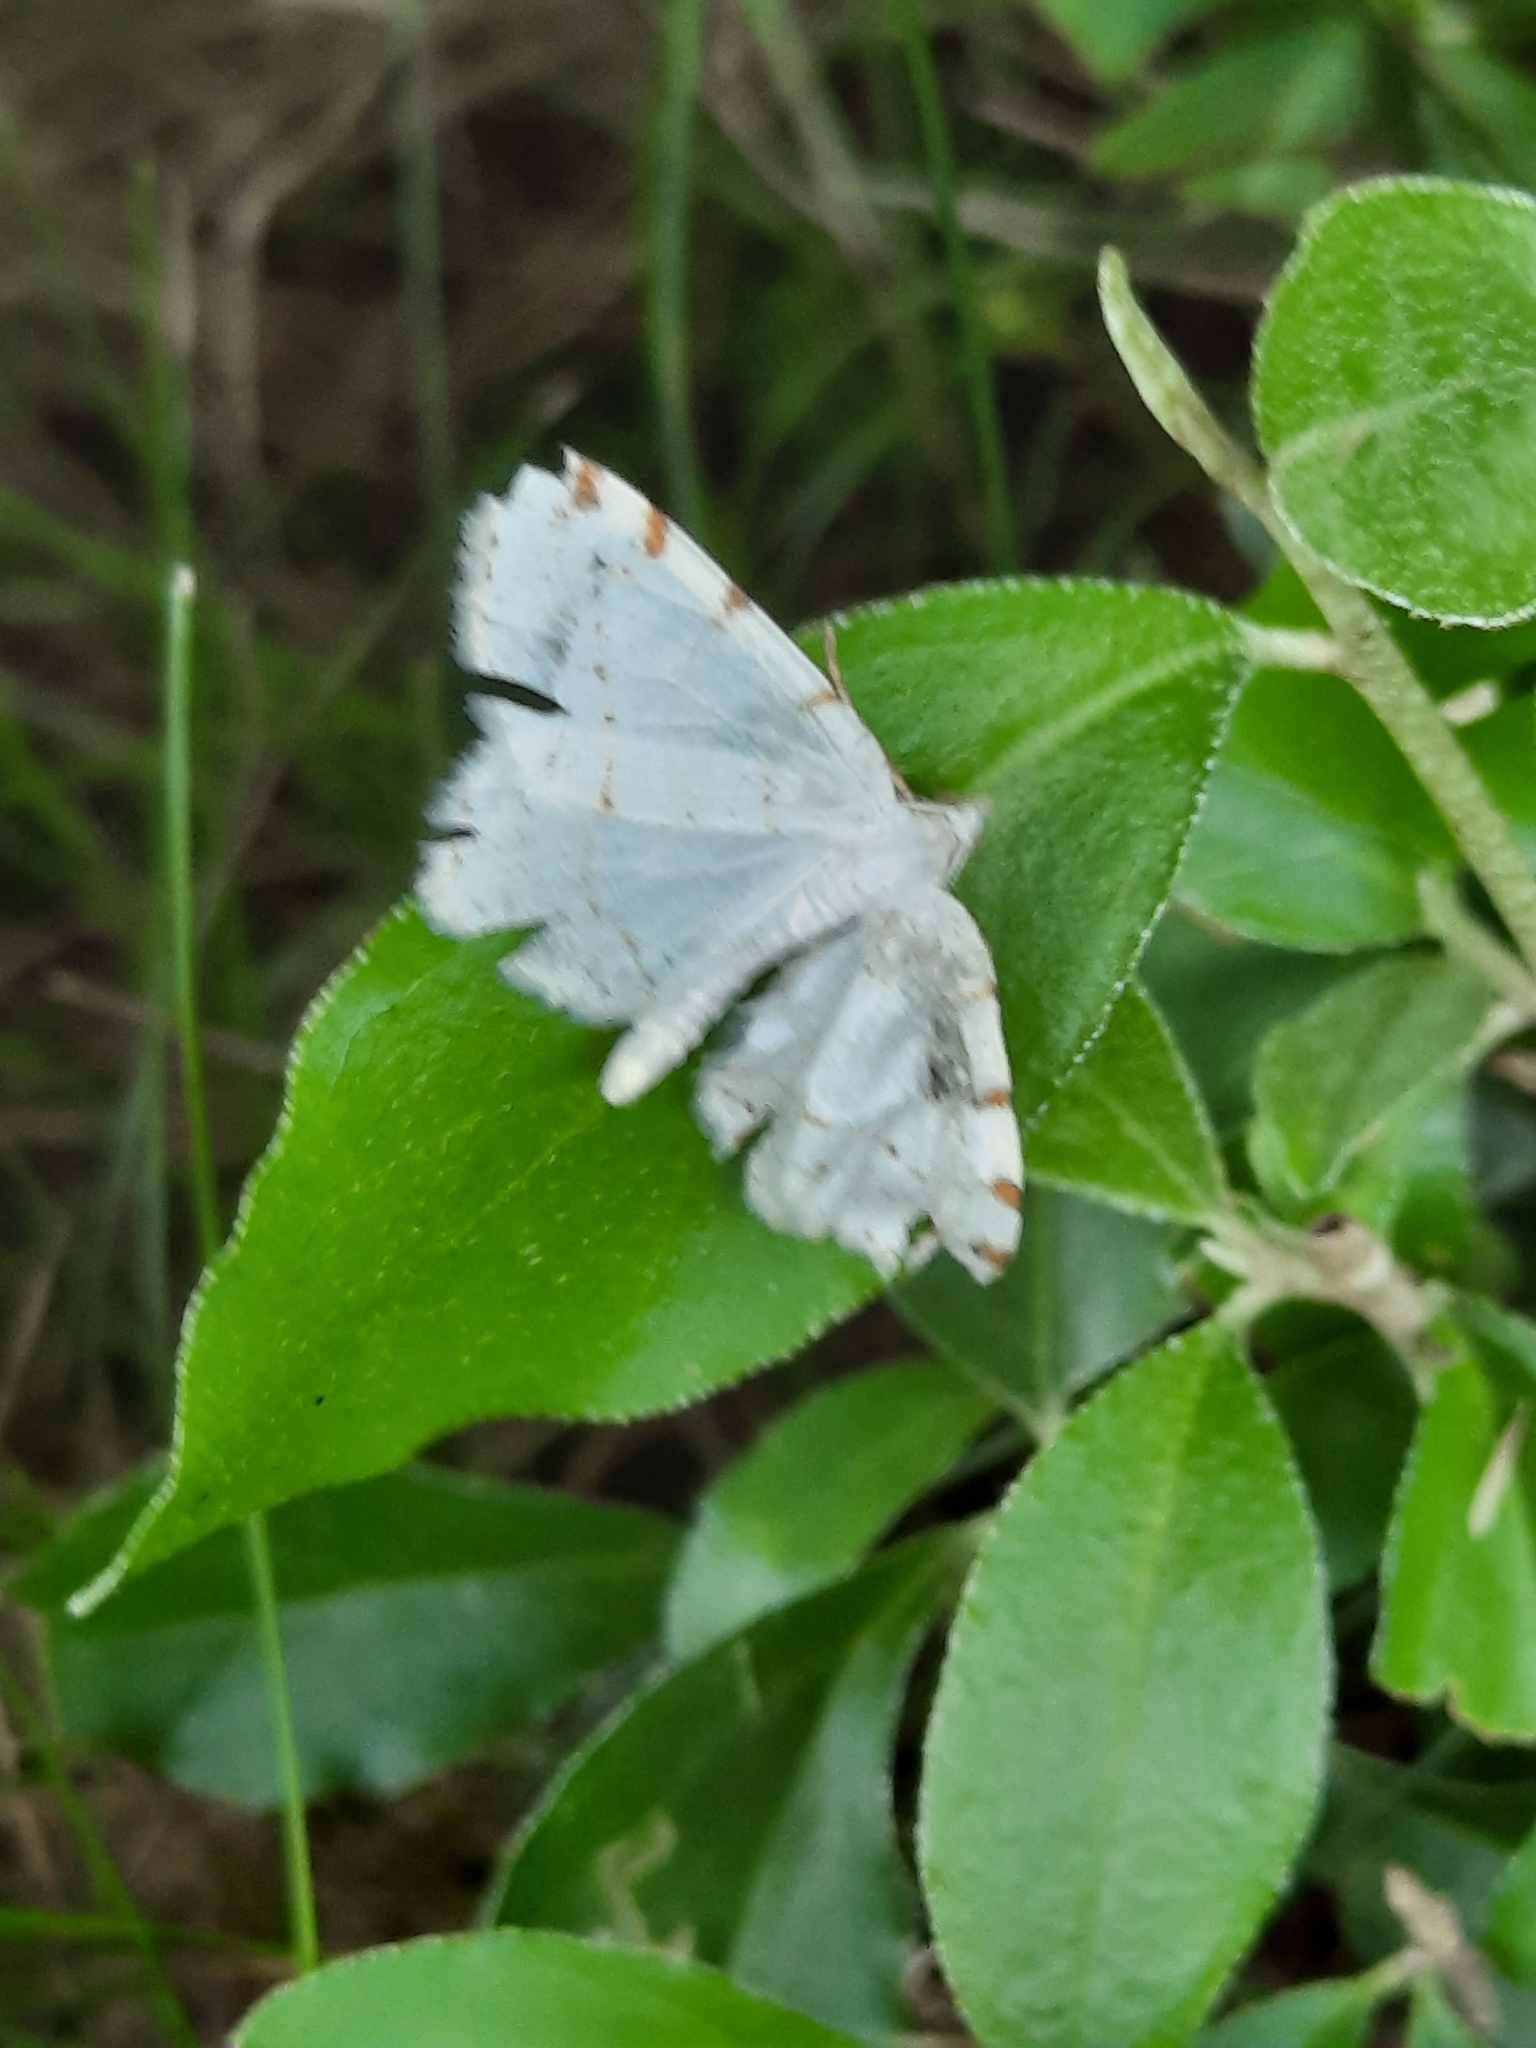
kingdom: Animalia
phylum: Arthropoda
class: Insecta
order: Lepidoptera
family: Geometridae
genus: Macaria
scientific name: Macaria pustularia
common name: Lesser maple spanworm moth
